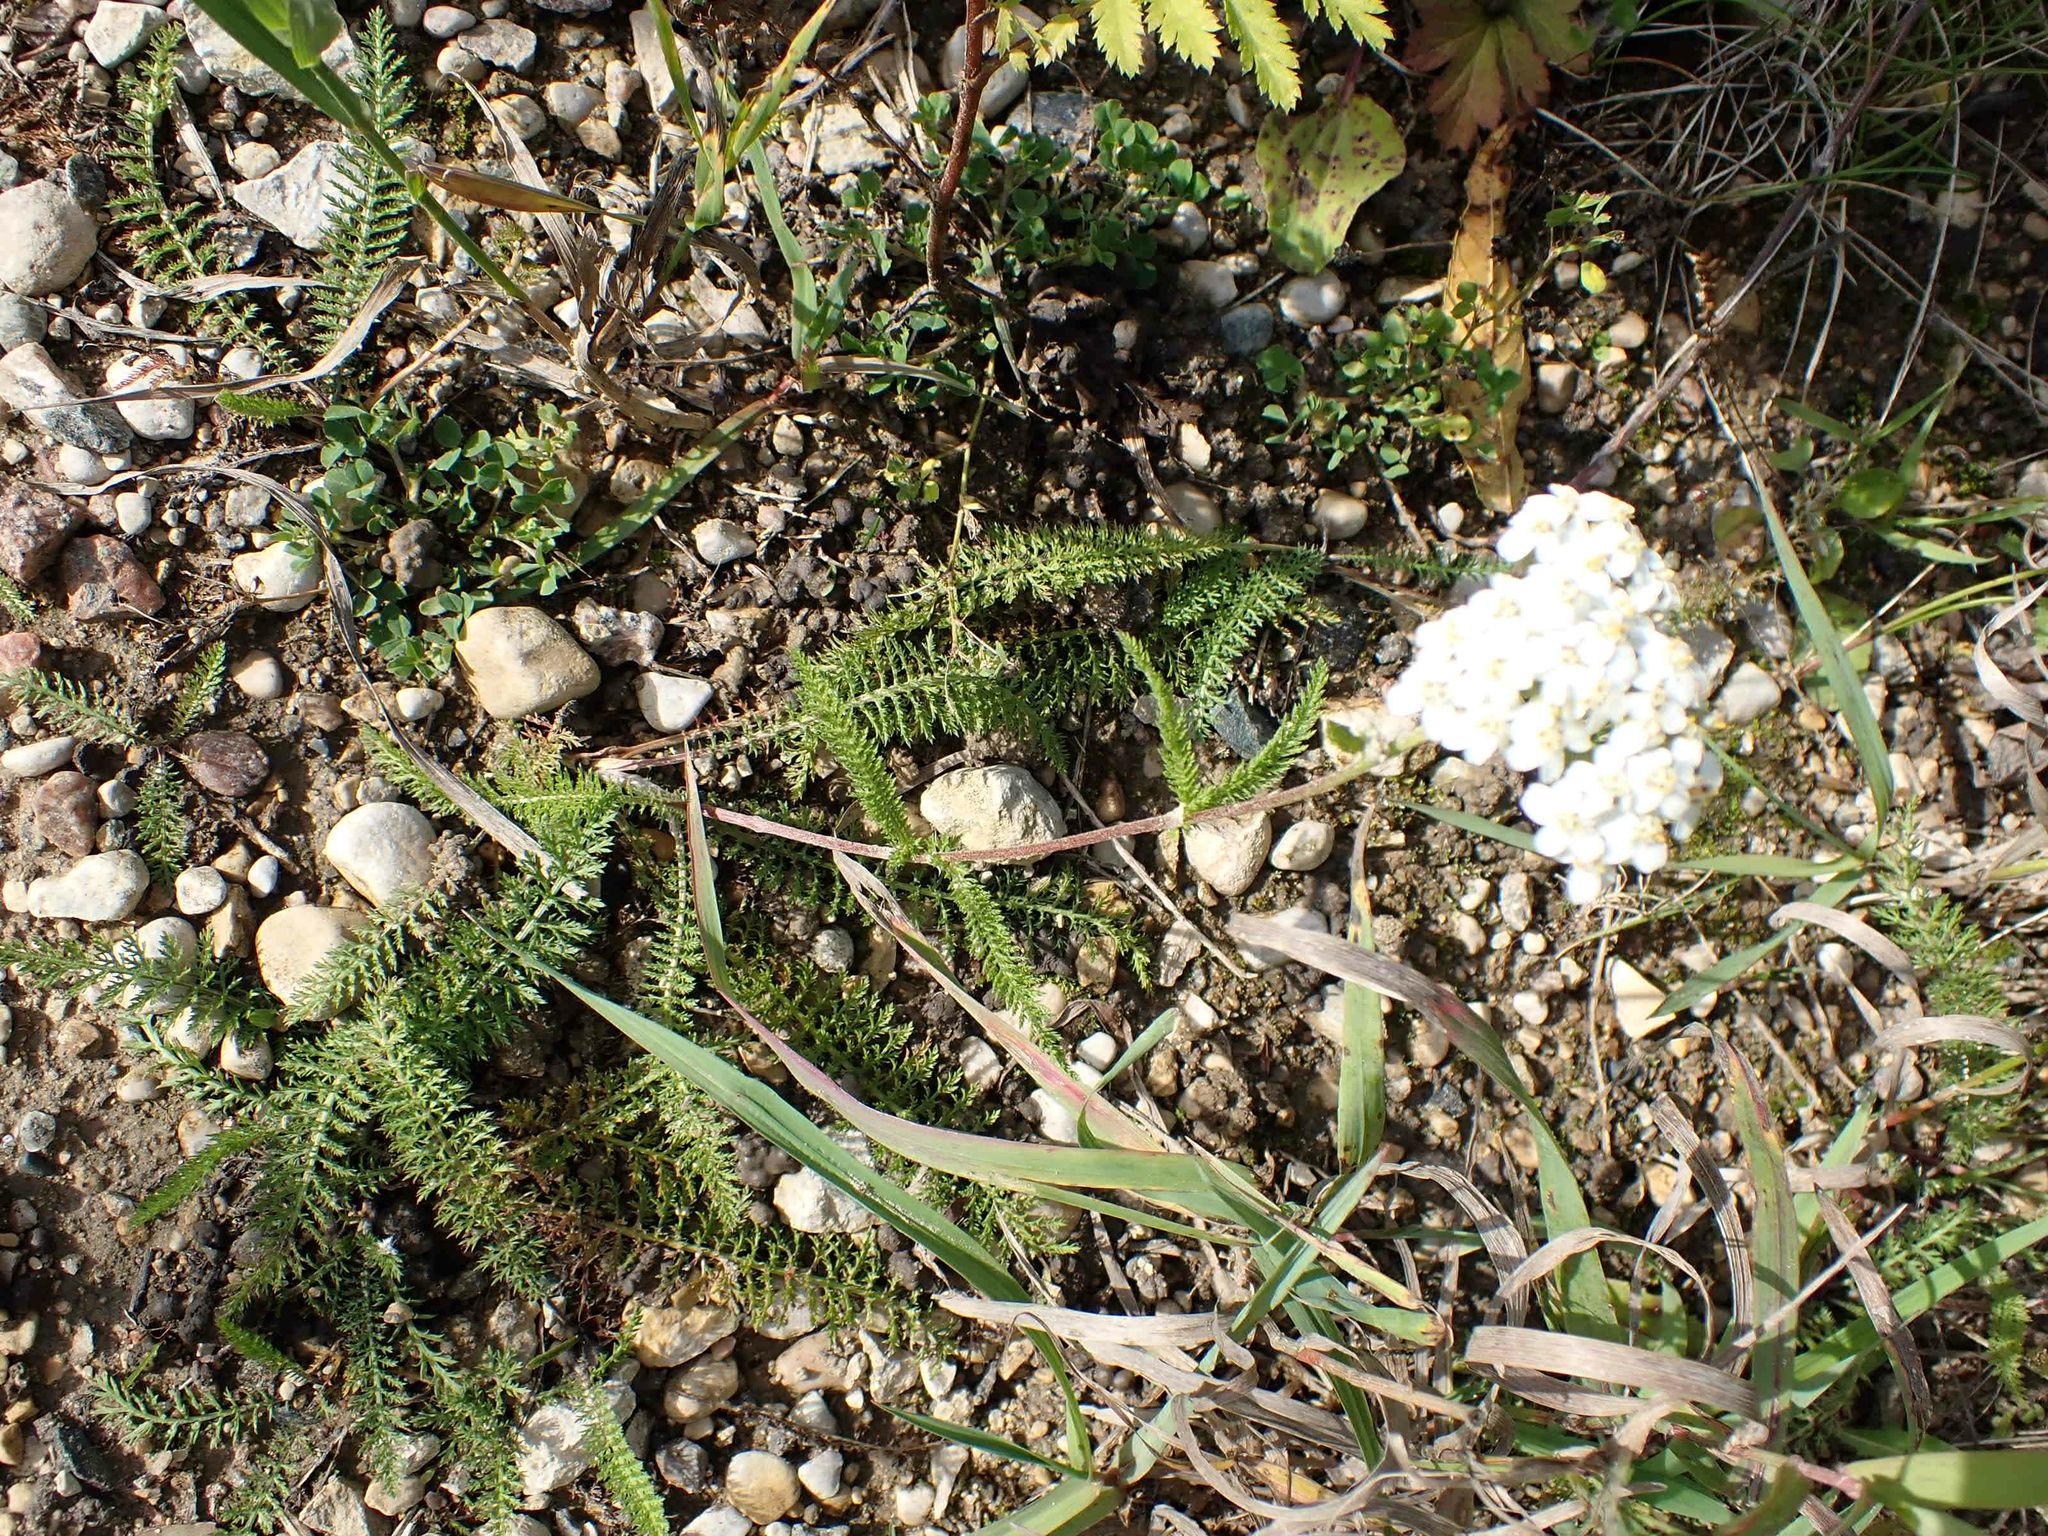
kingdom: Plantae
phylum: Tracheophyta
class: Magnoliopsida
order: Asterales
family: Asteraceae
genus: Achillea
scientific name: Achillea millefolium
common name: Yarrow
